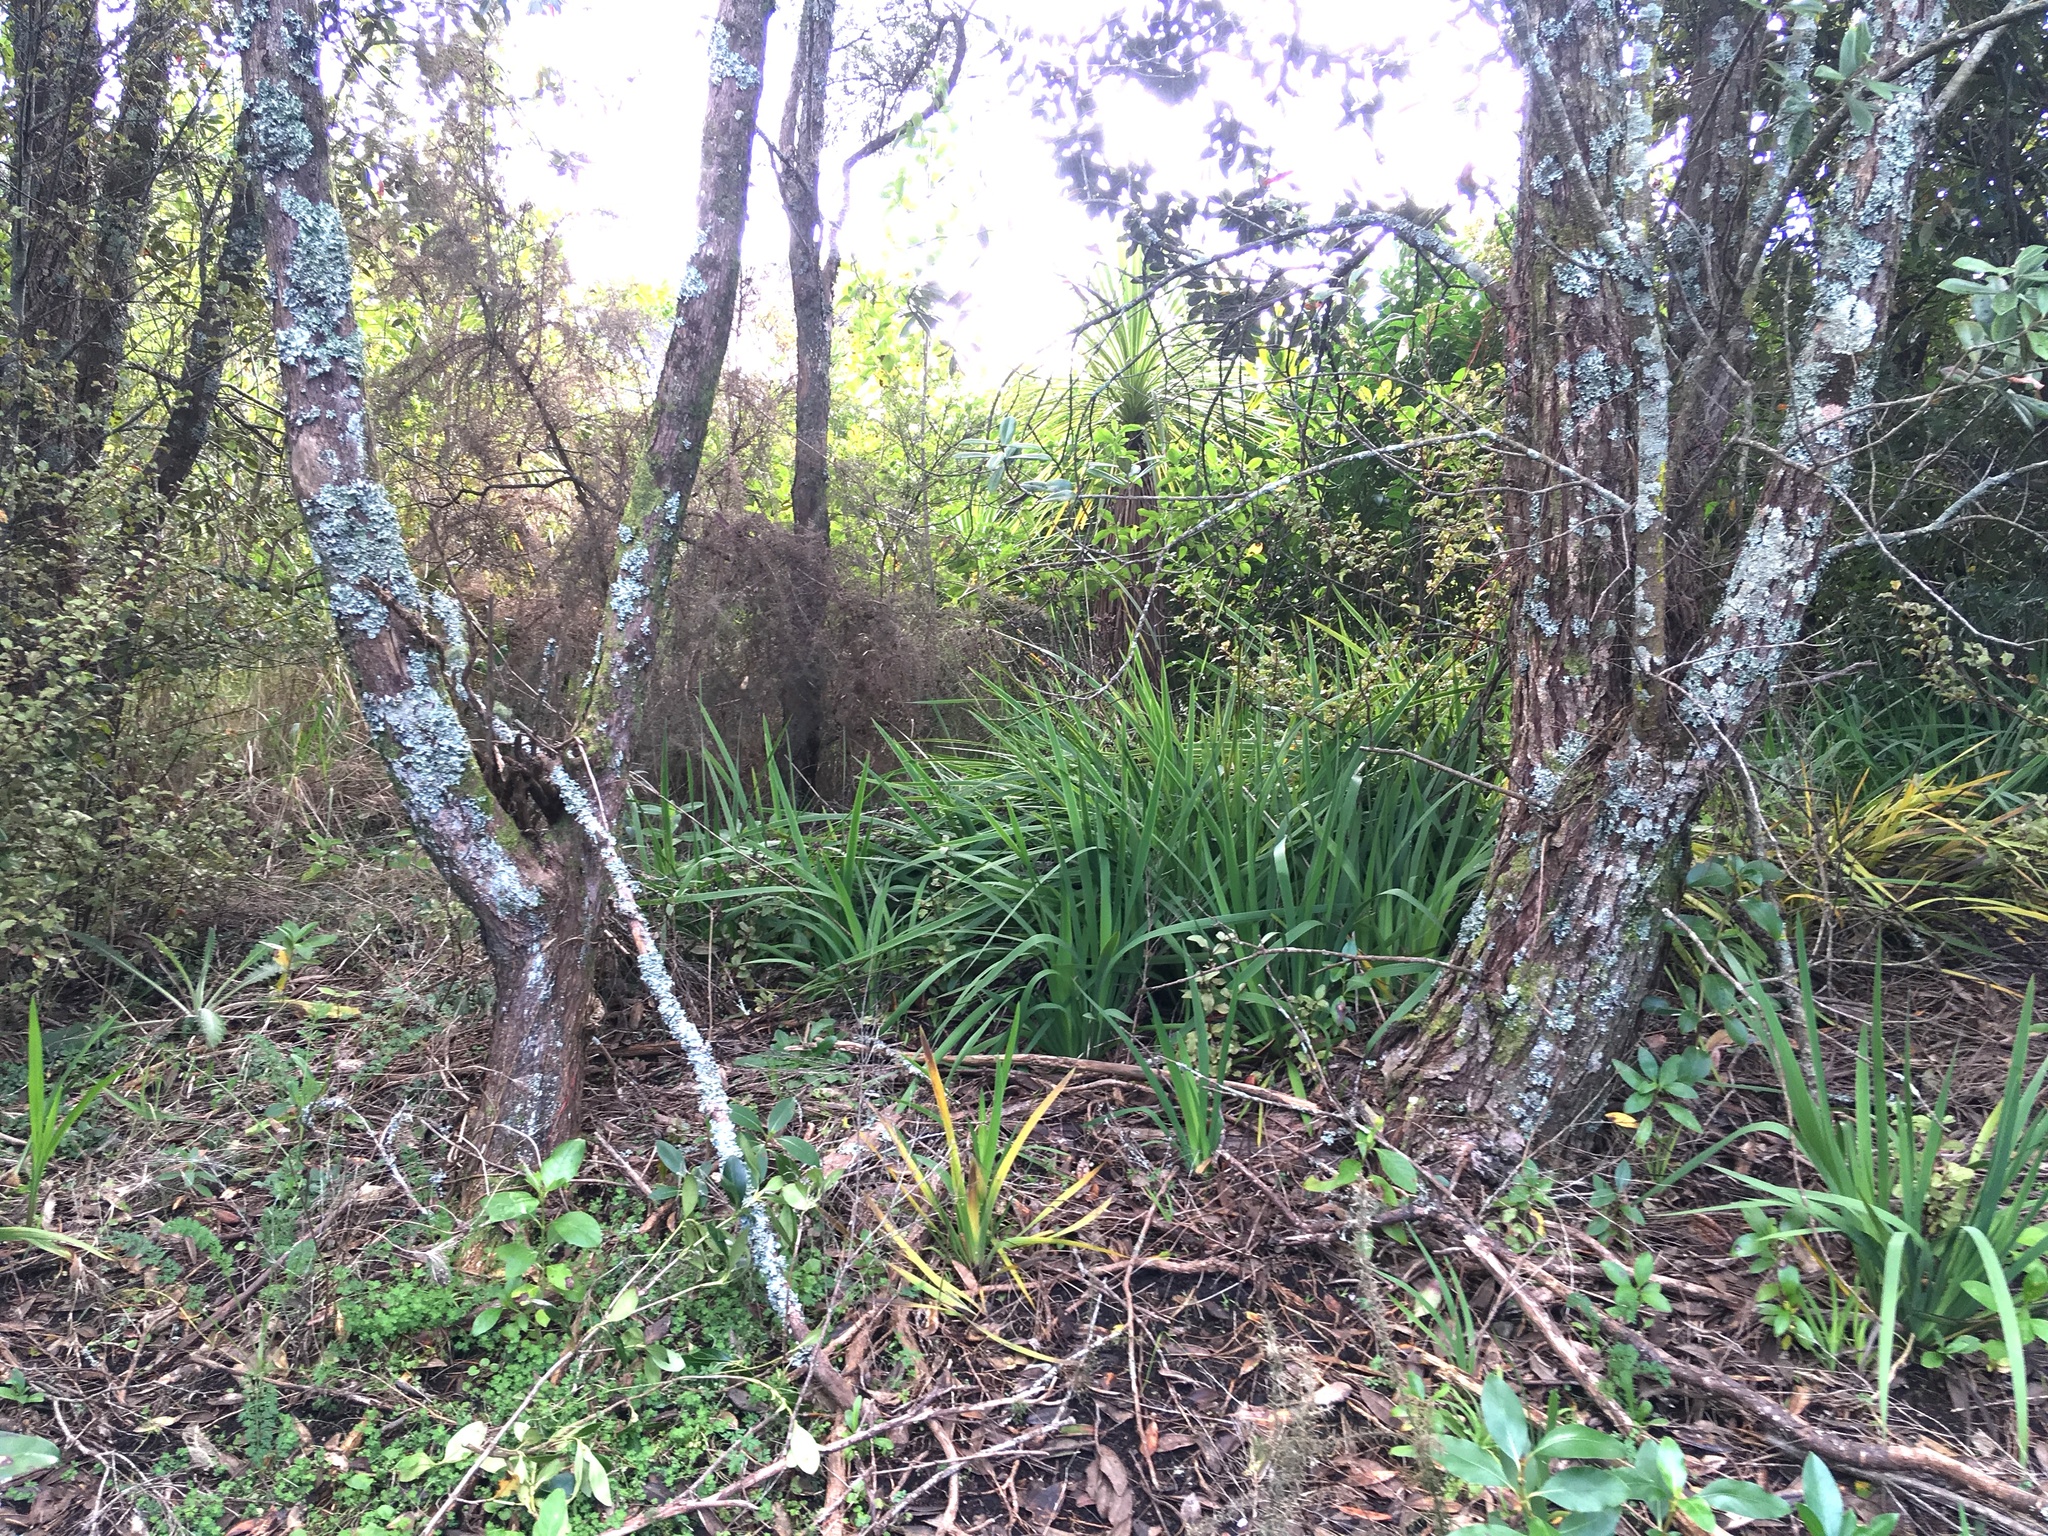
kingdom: Plantae
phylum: Tracheophyta
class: Liliopsida
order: Asparagales
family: Iridaceae
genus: Aristea
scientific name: Aristea ecklonii
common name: Blue corn-lily
